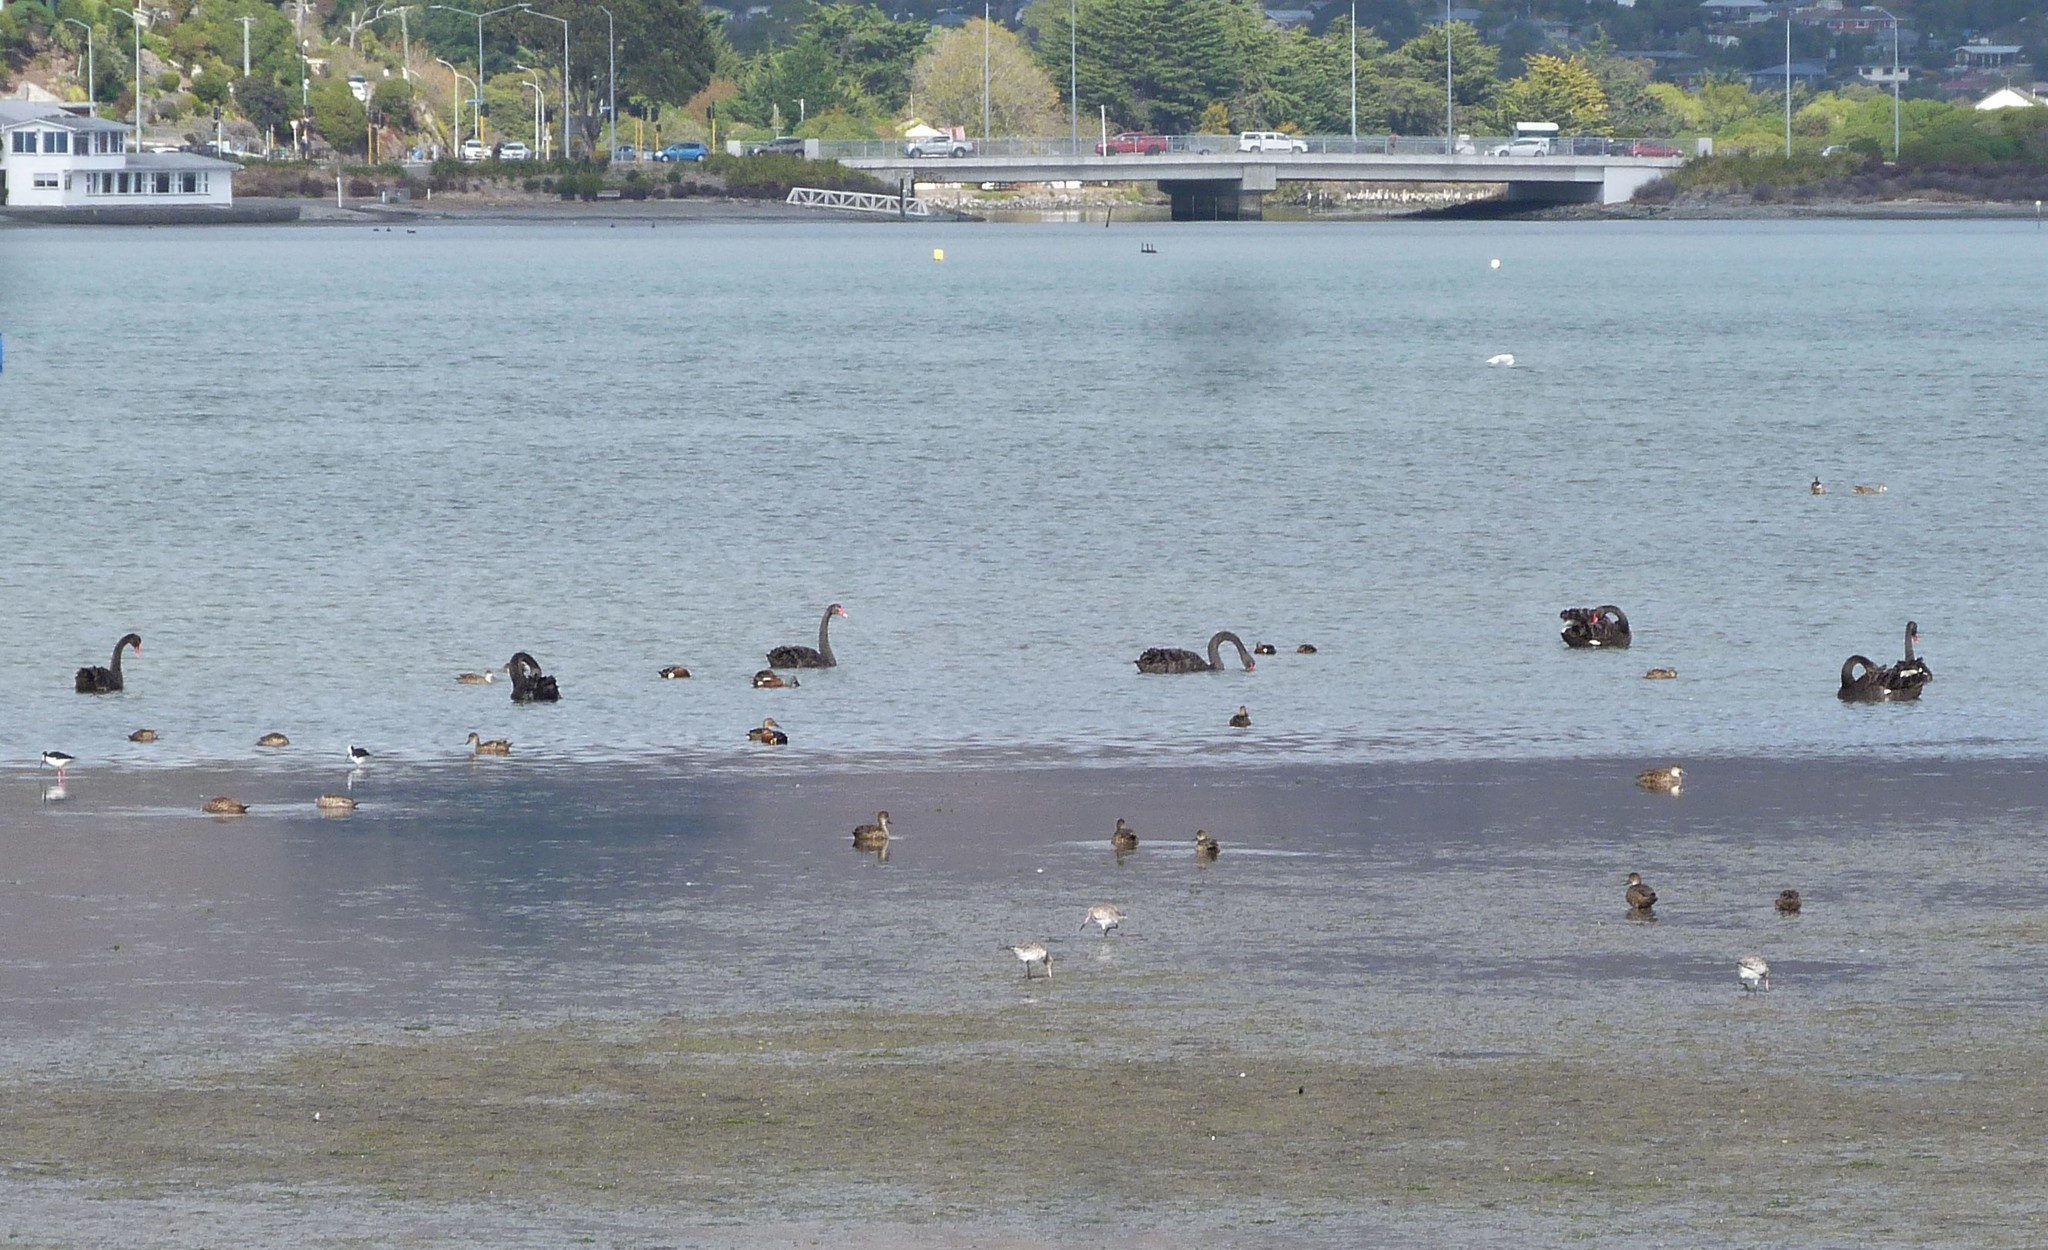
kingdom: Animalia
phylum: Chordata
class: Aves
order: Charadriiformes
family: Scolopacidae
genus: Limosa
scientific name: Limosa lapponica
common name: Bar-tailed godwit
